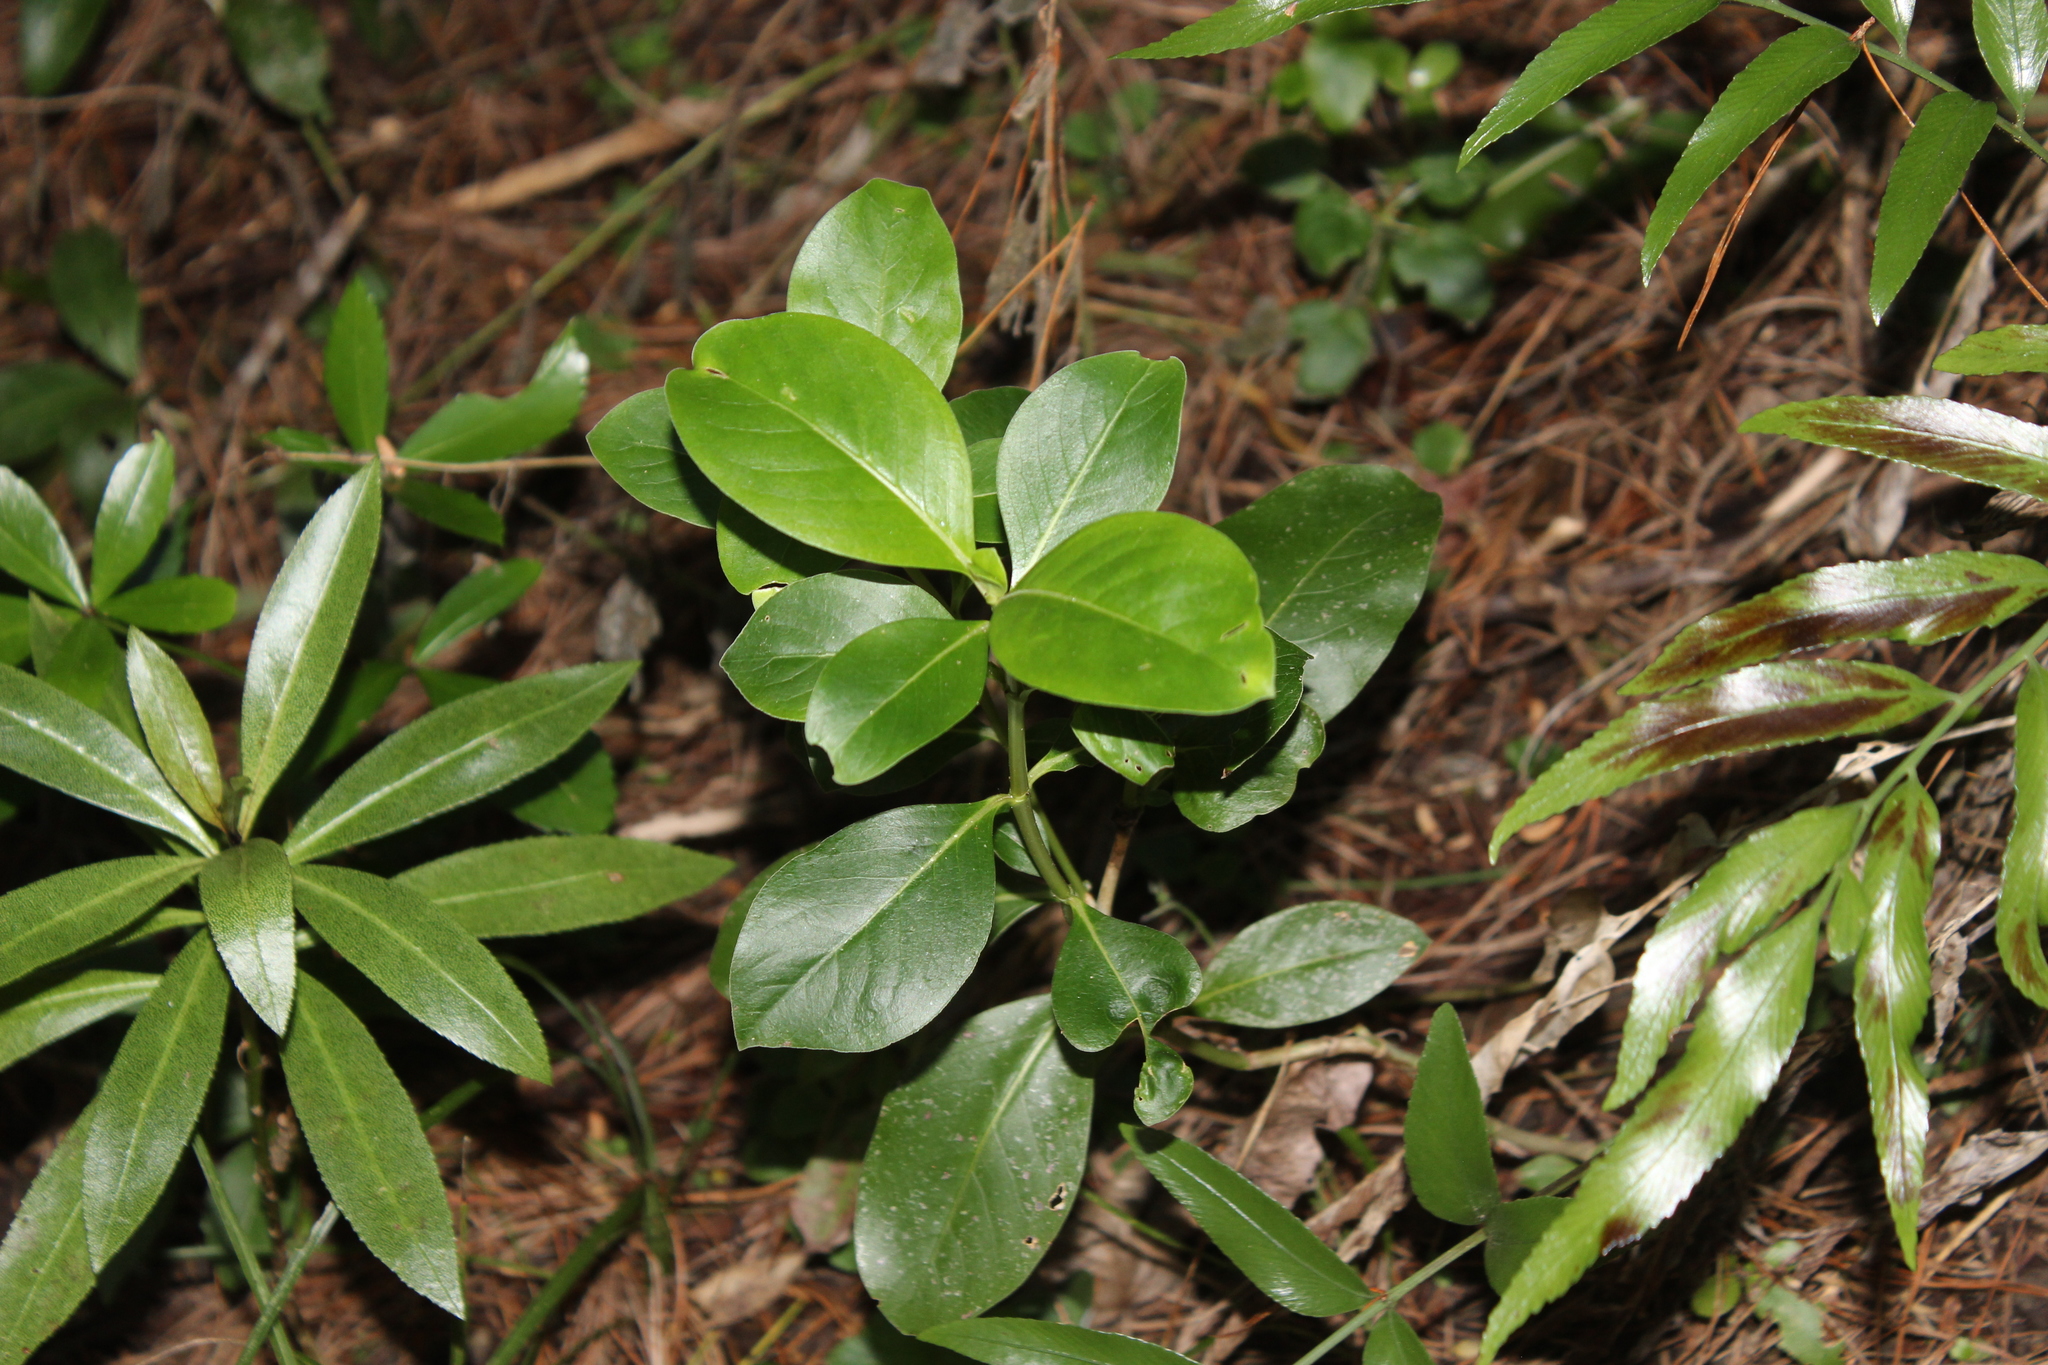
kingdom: Plantae
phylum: Tracheophyta
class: Magnoliopsida
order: Gentianales
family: Rubiaceae
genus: Coprosma
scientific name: Coprosma lucida
